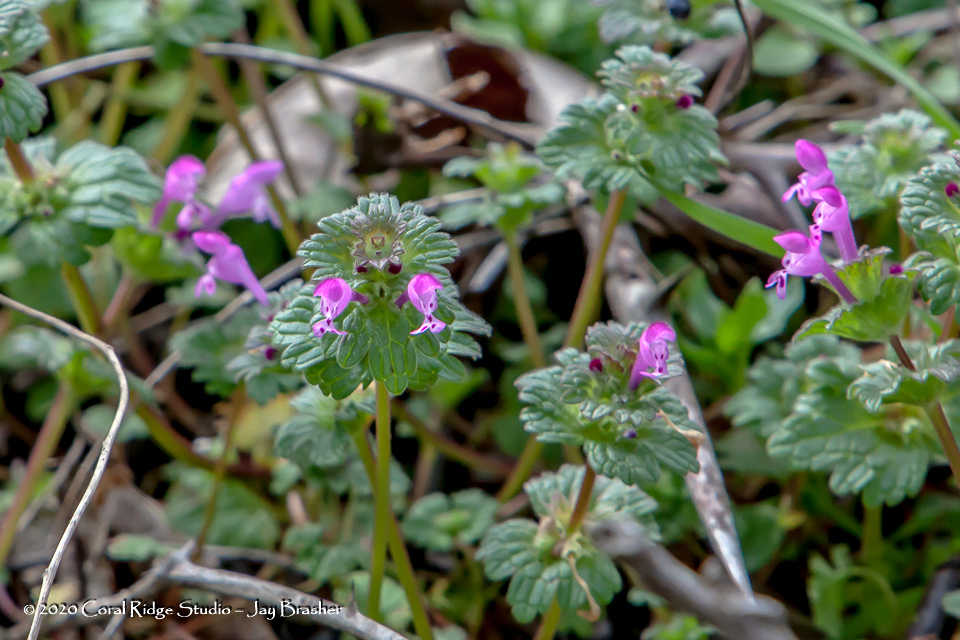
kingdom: Plantae
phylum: Tracheophyta
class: Magnoliopsida
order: Lamiales
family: Lamiaceae
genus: Lamium
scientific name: Lamium amplexicaule
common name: Henbit dead-nettle
